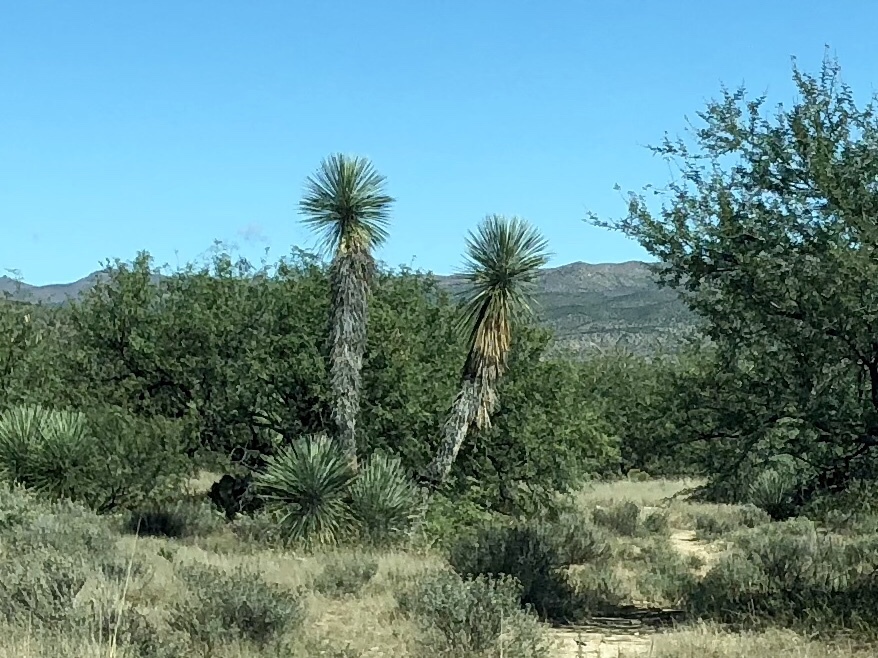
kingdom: Plantae
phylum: Tracheophyta
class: Liliopsida
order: Asparagales
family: Asparagaceae
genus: Yucca
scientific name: Yucca elata
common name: Palmella
